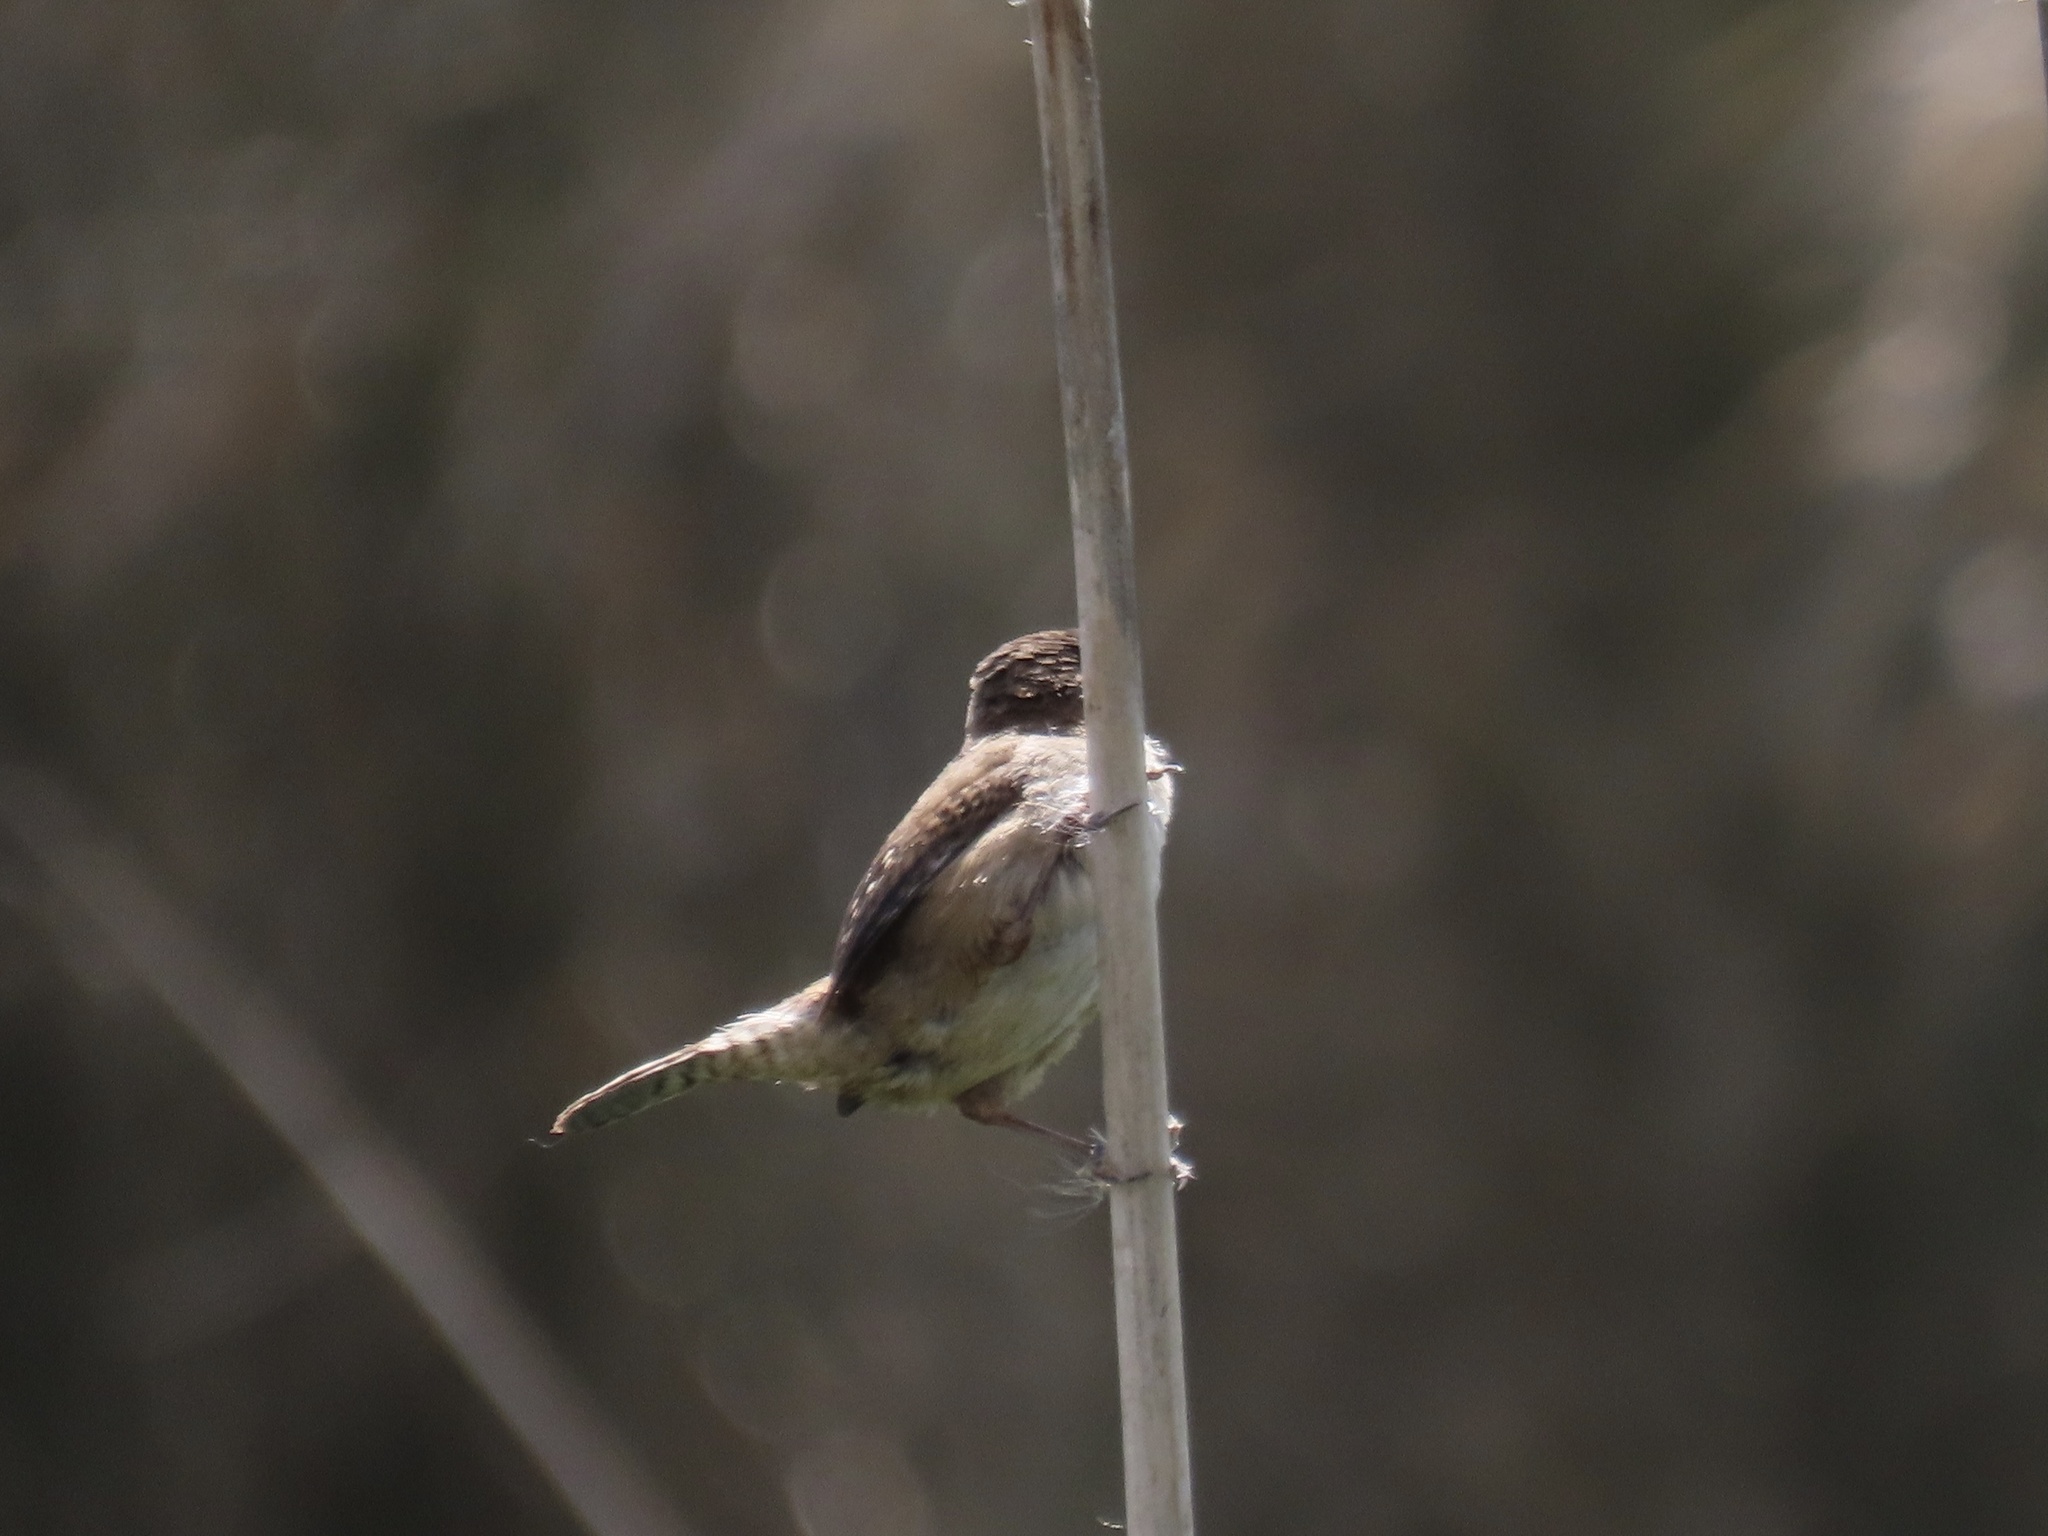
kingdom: Animalia
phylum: Chordata
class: Aves
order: Passeriformes
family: Troglodytidae
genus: Cistothorus
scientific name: Cistothorus palustris
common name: Marsh wren
